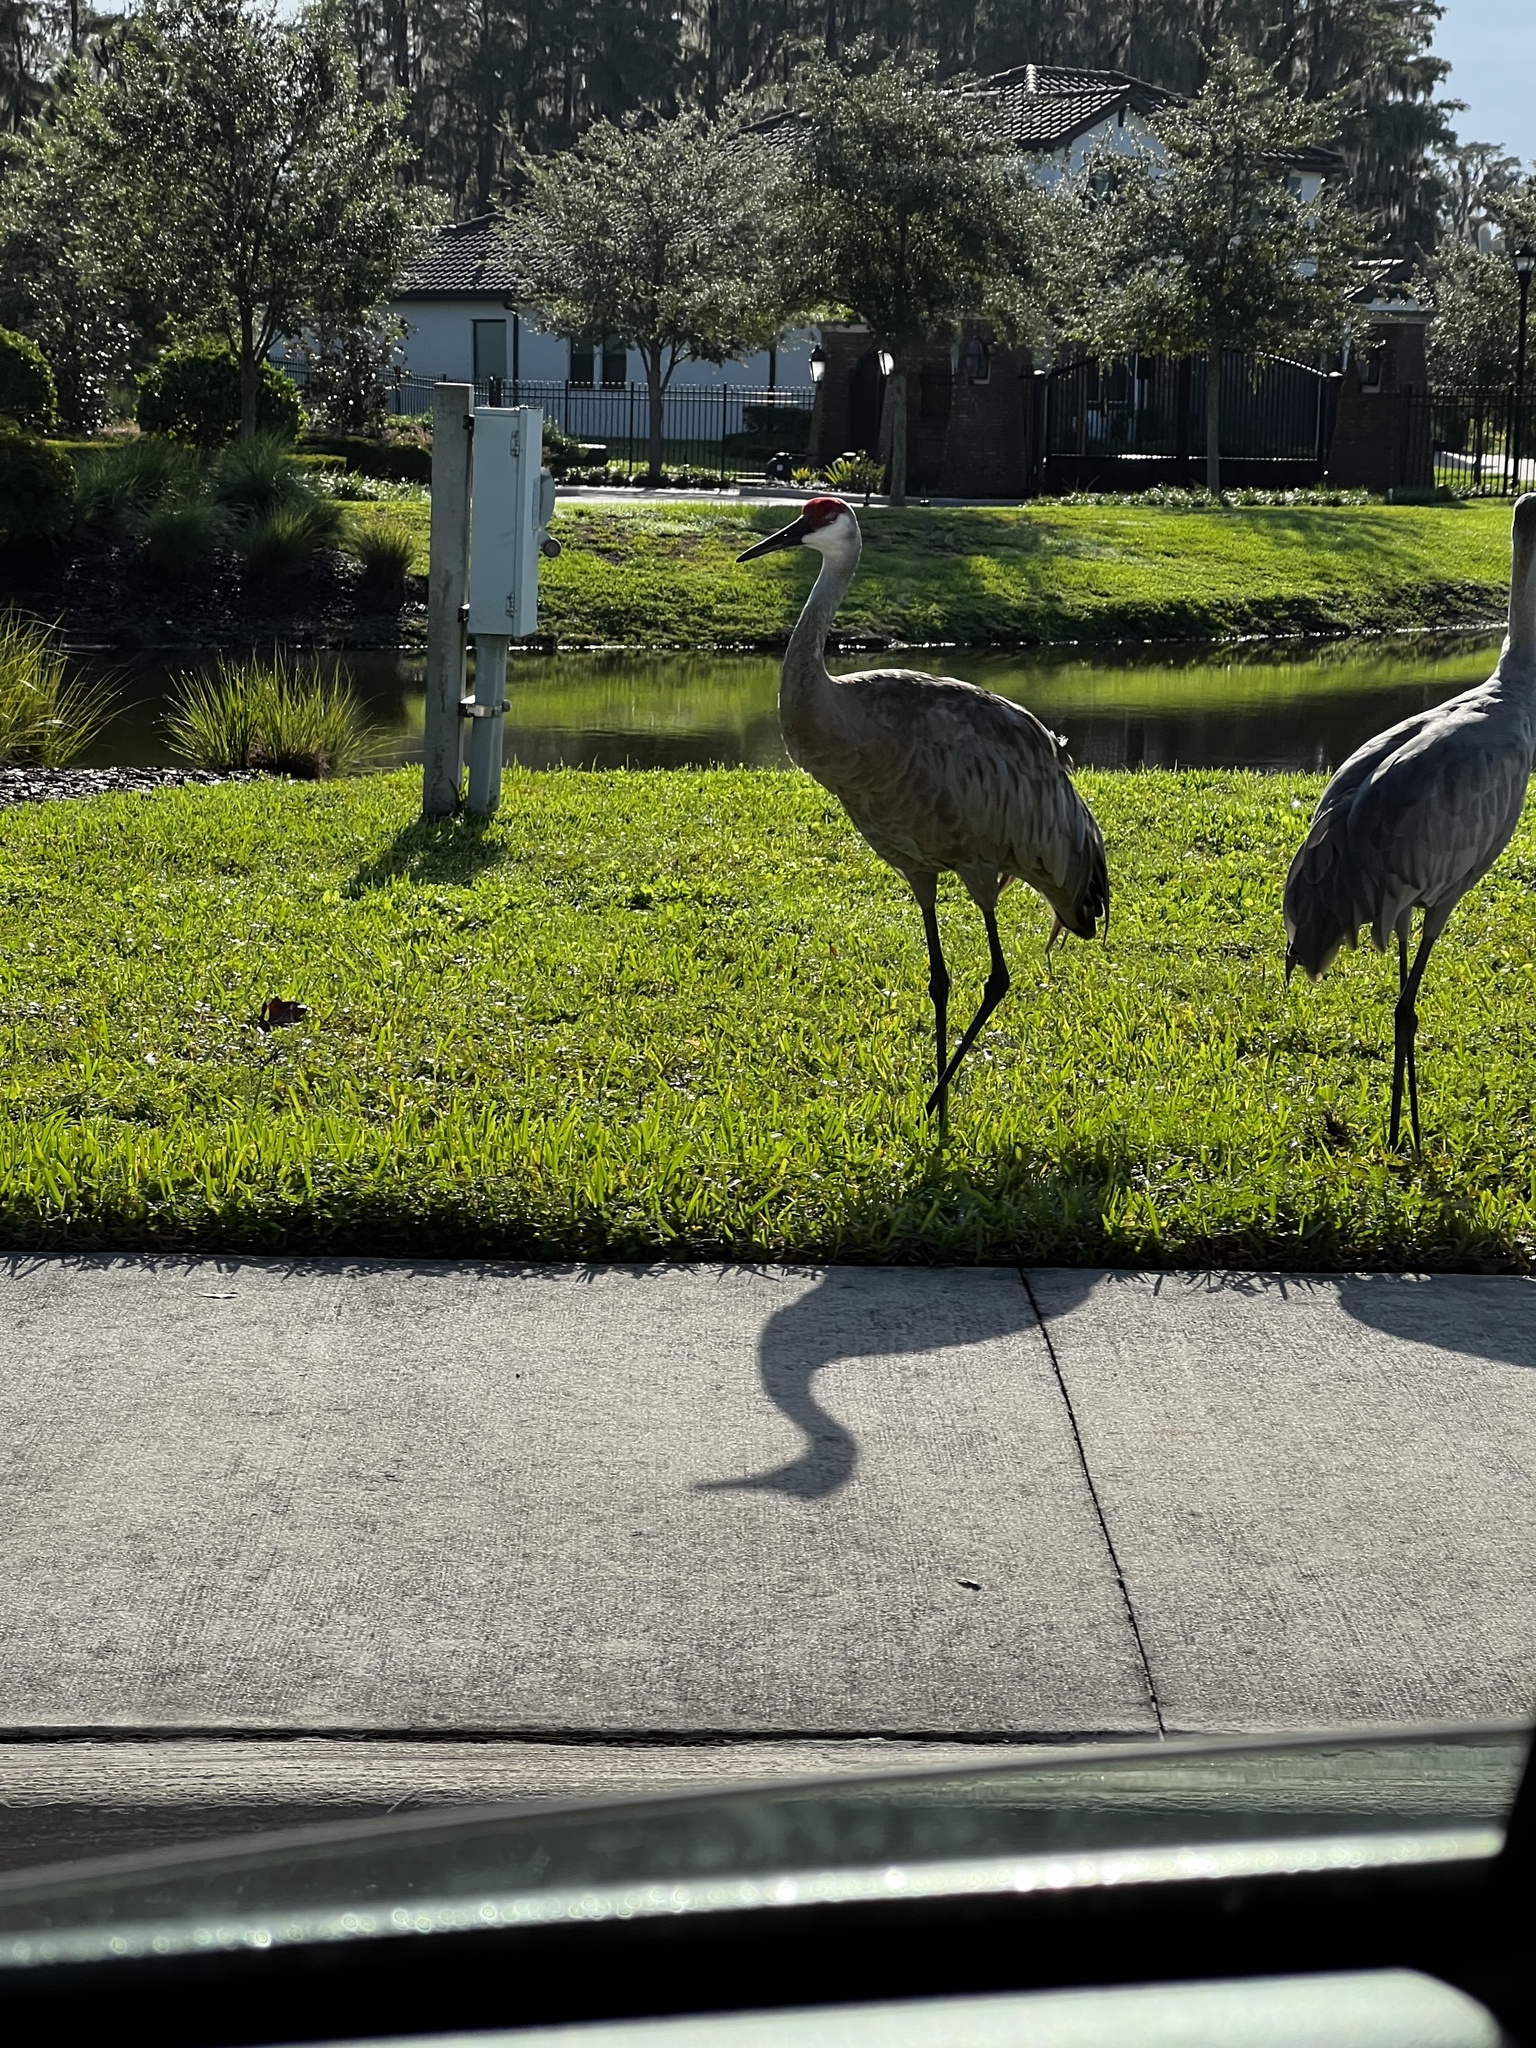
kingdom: Animalia
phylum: Chordata
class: Aves
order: Gruiformes
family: Gruidae
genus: Grus
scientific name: Grus canadensis
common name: Sandhill crane
